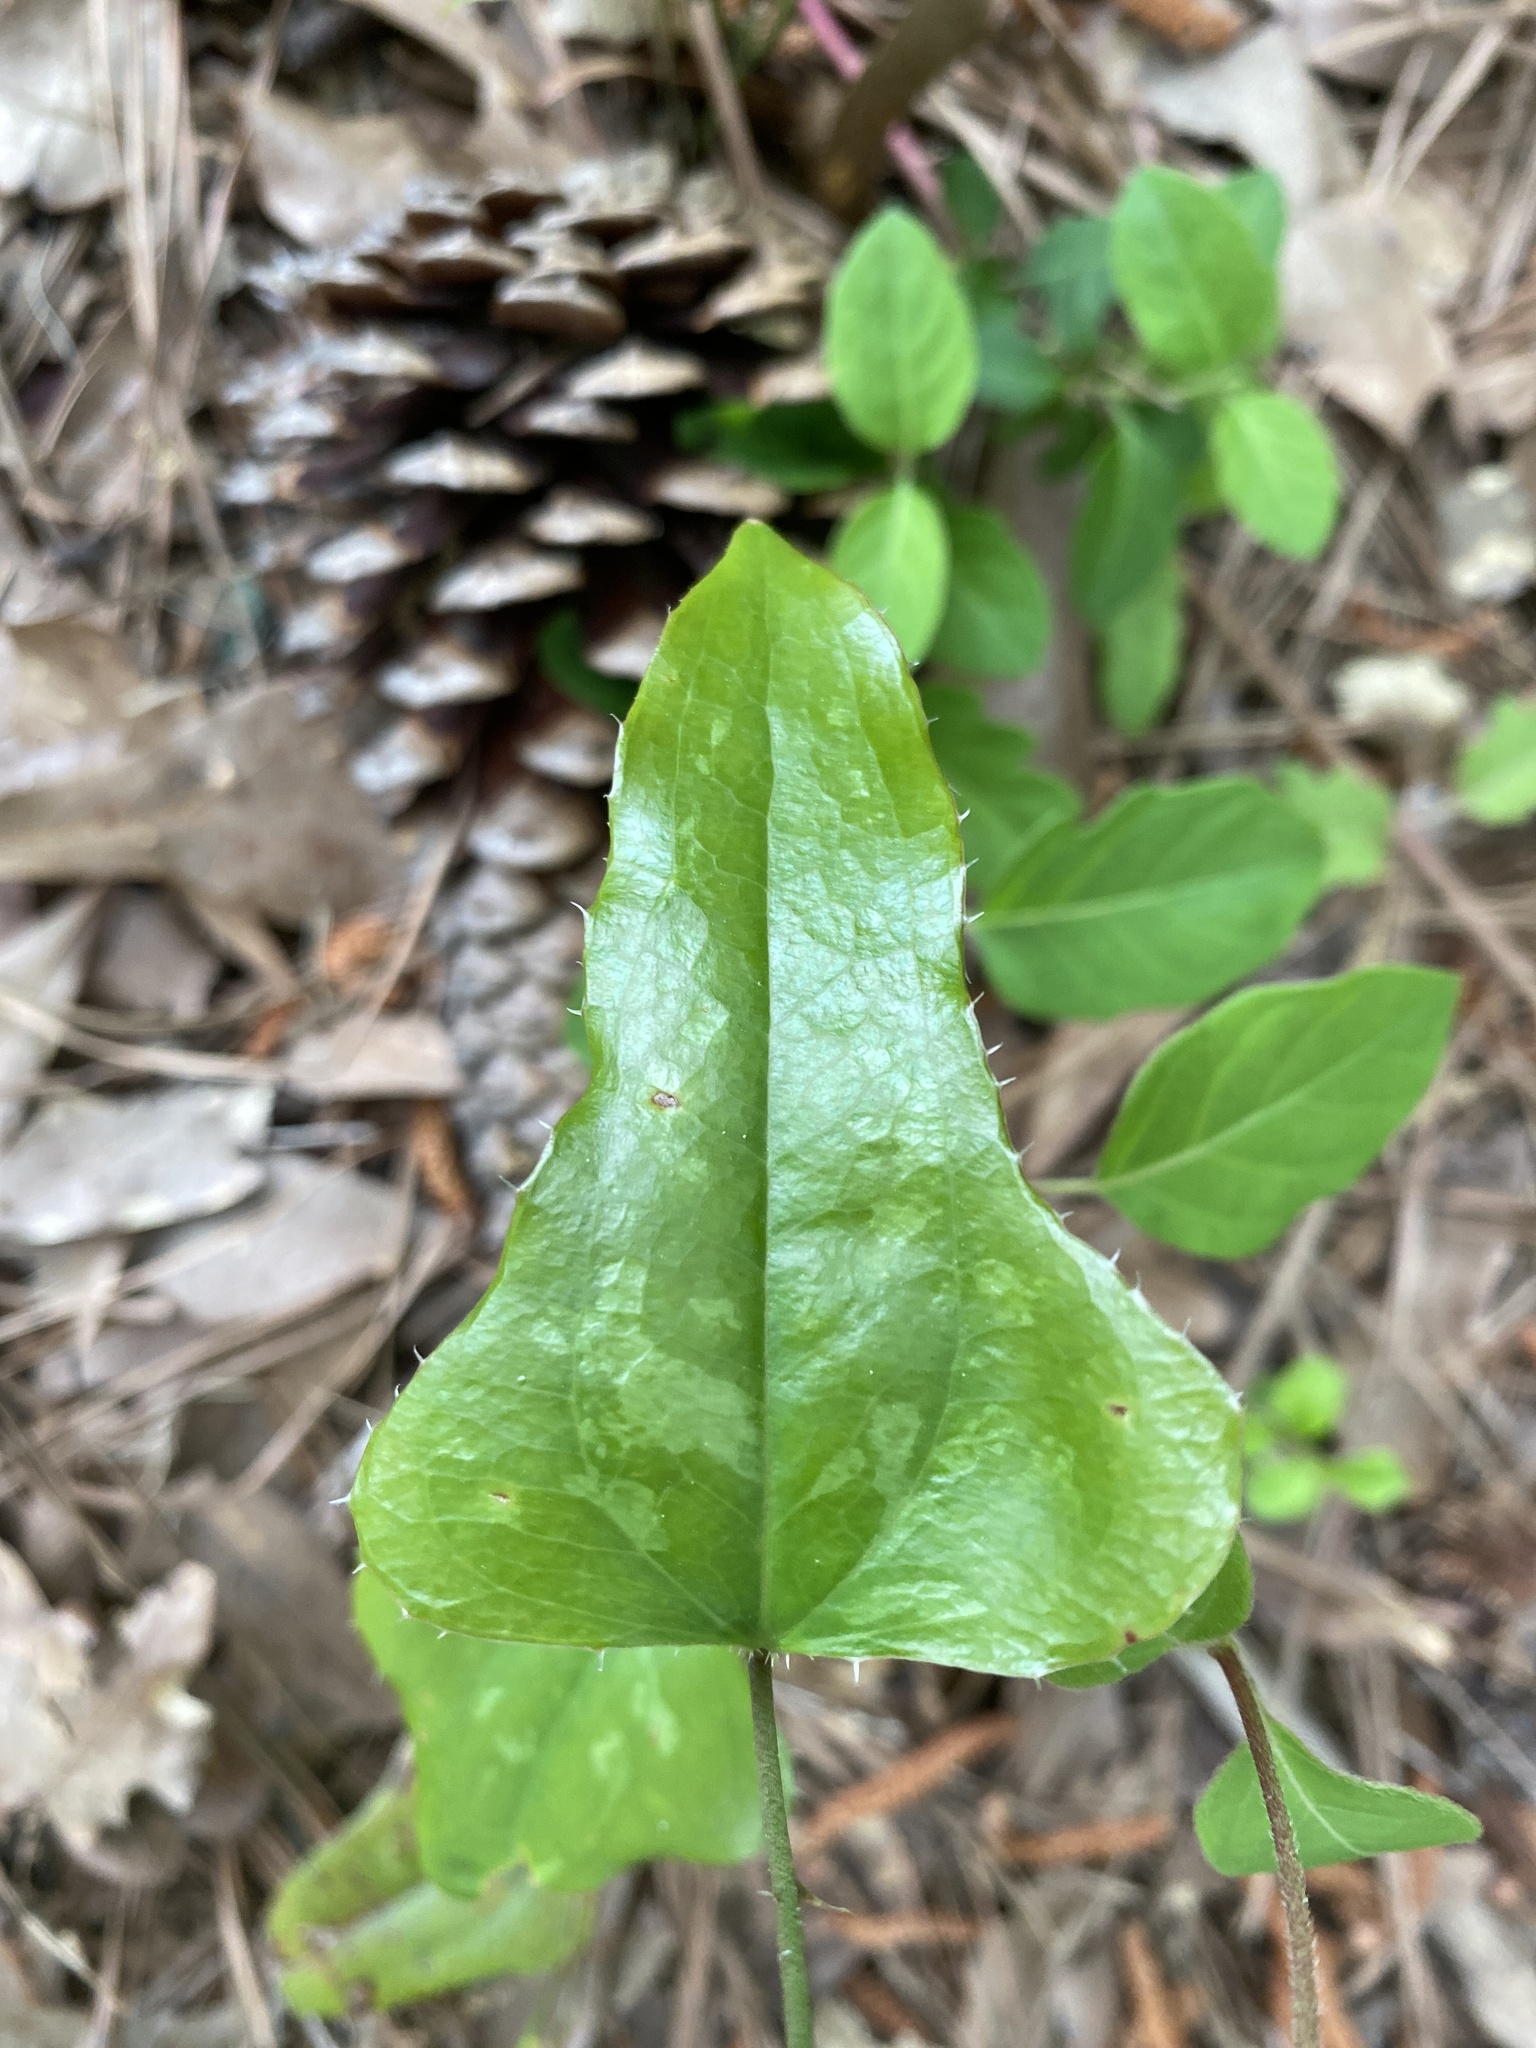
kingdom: Plantae
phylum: Tracheophyta
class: Liliopsida
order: Liliales
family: Smilacaceae
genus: Smilax
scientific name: Smilax bona-nox
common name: Catbrier
